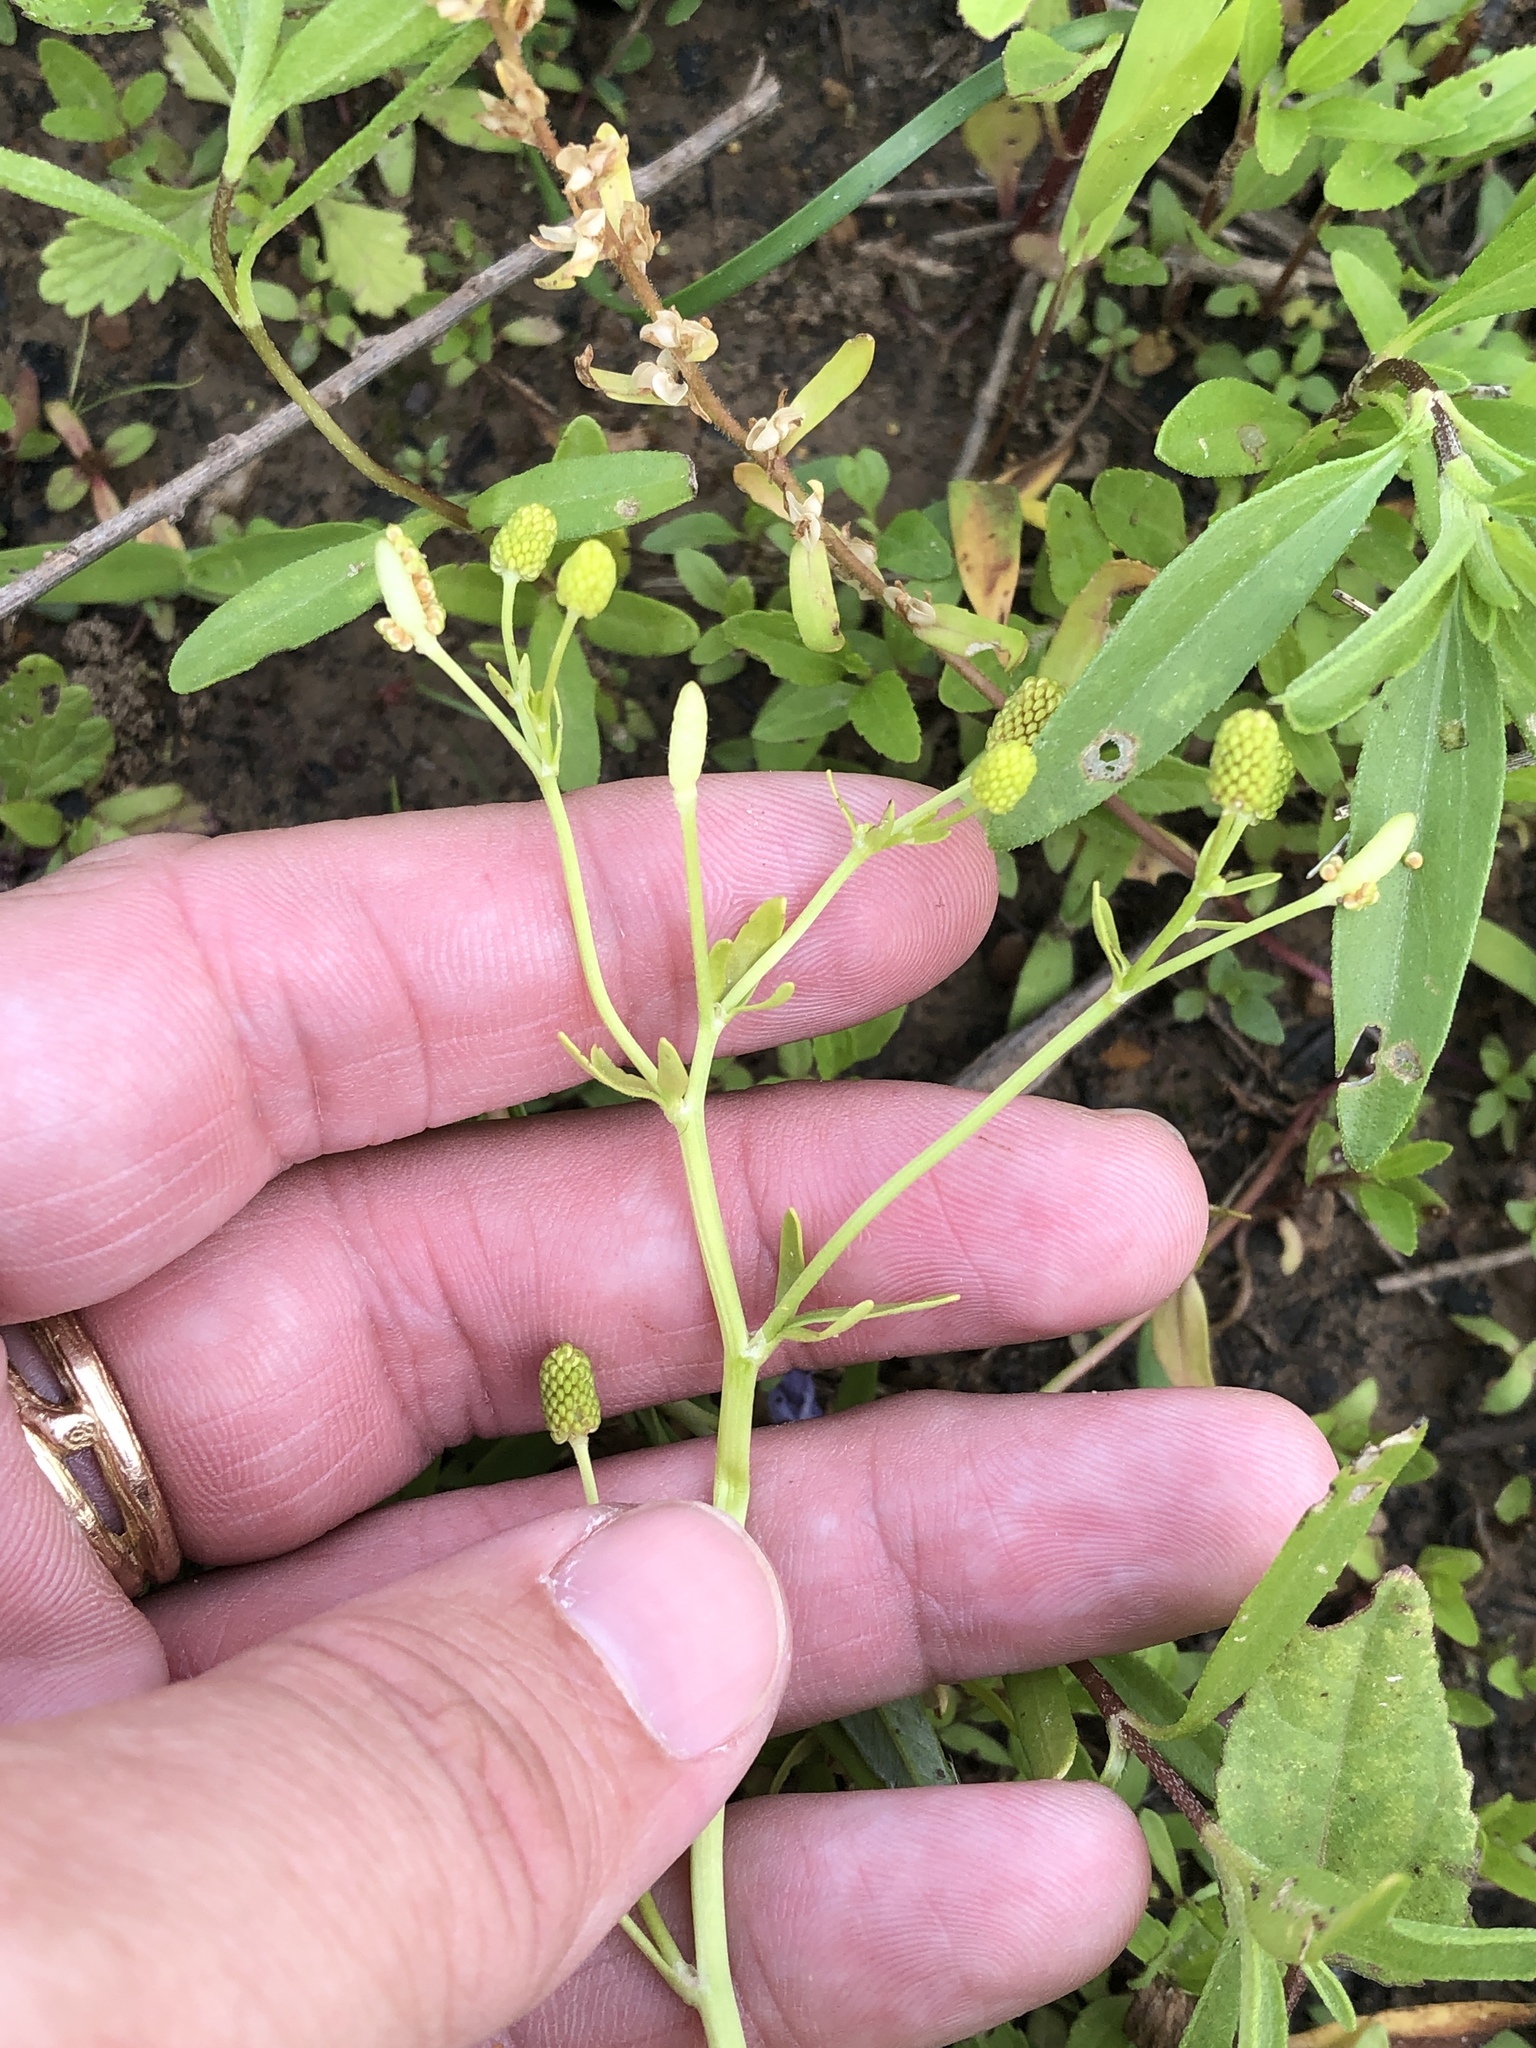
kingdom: Plantae
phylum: Tracheophyta
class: Magnoliopsida
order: Ranunculales
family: Ranunculaceae
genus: Ranunculus
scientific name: Ranunculus sceleratus
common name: Celery-leaved buttercup
